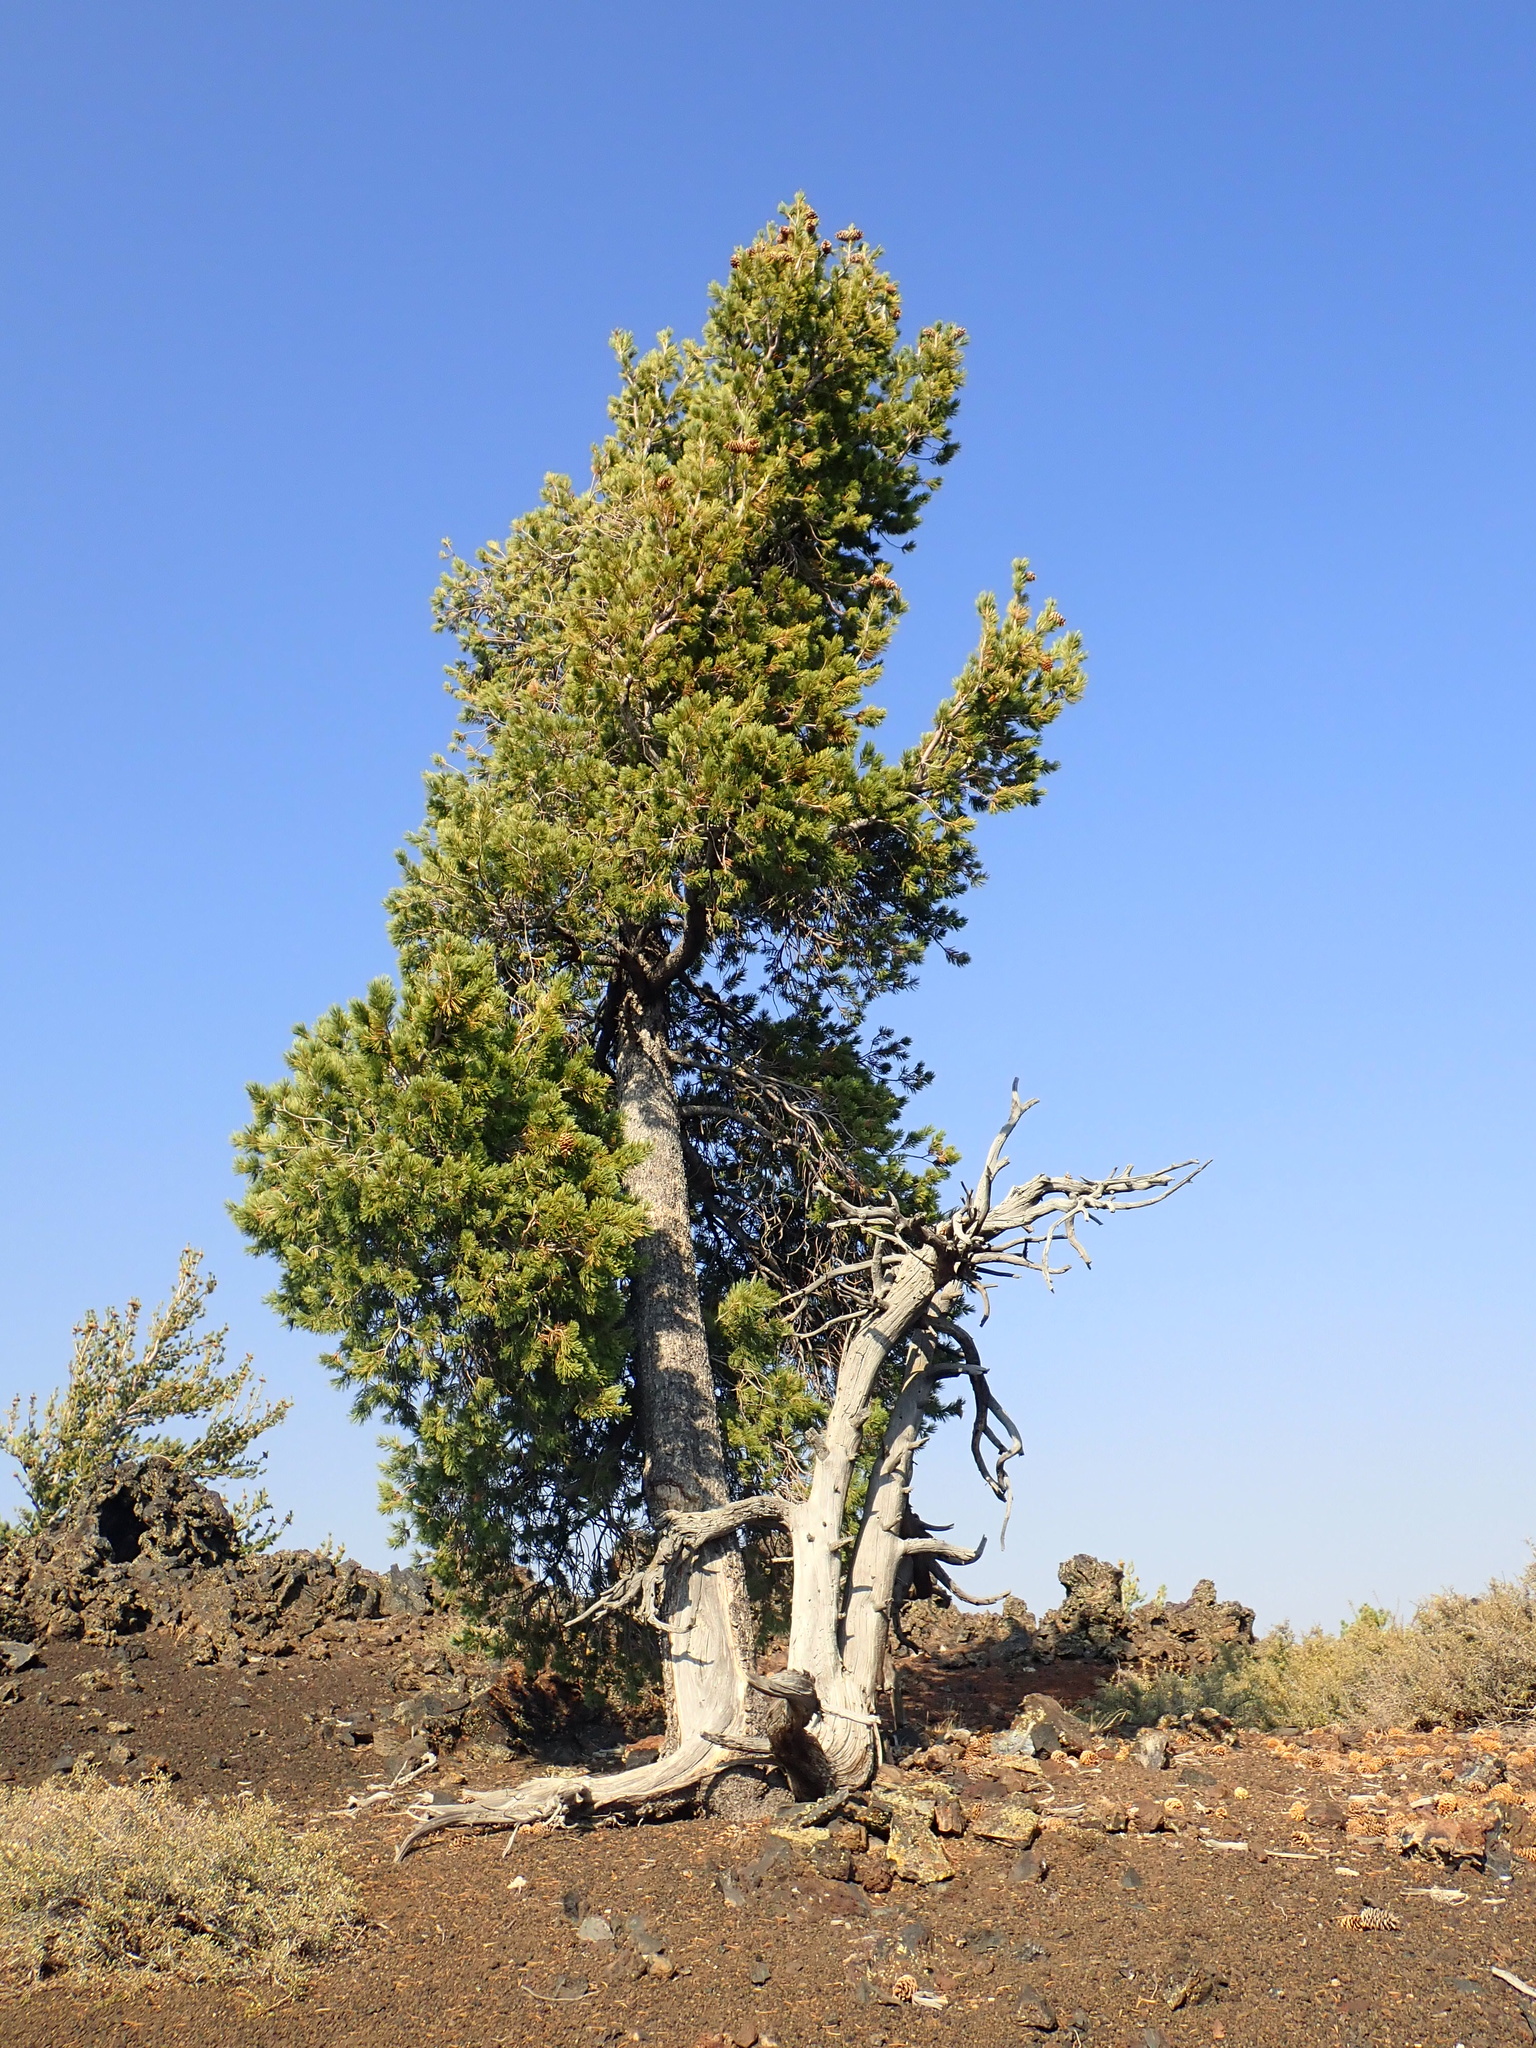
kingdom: Plantae
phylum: Tracheophyta
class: Pinopsida
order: Pinales
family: Pinaceae
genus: Pinus
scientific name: Pinus flexilis
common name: Limber pine
